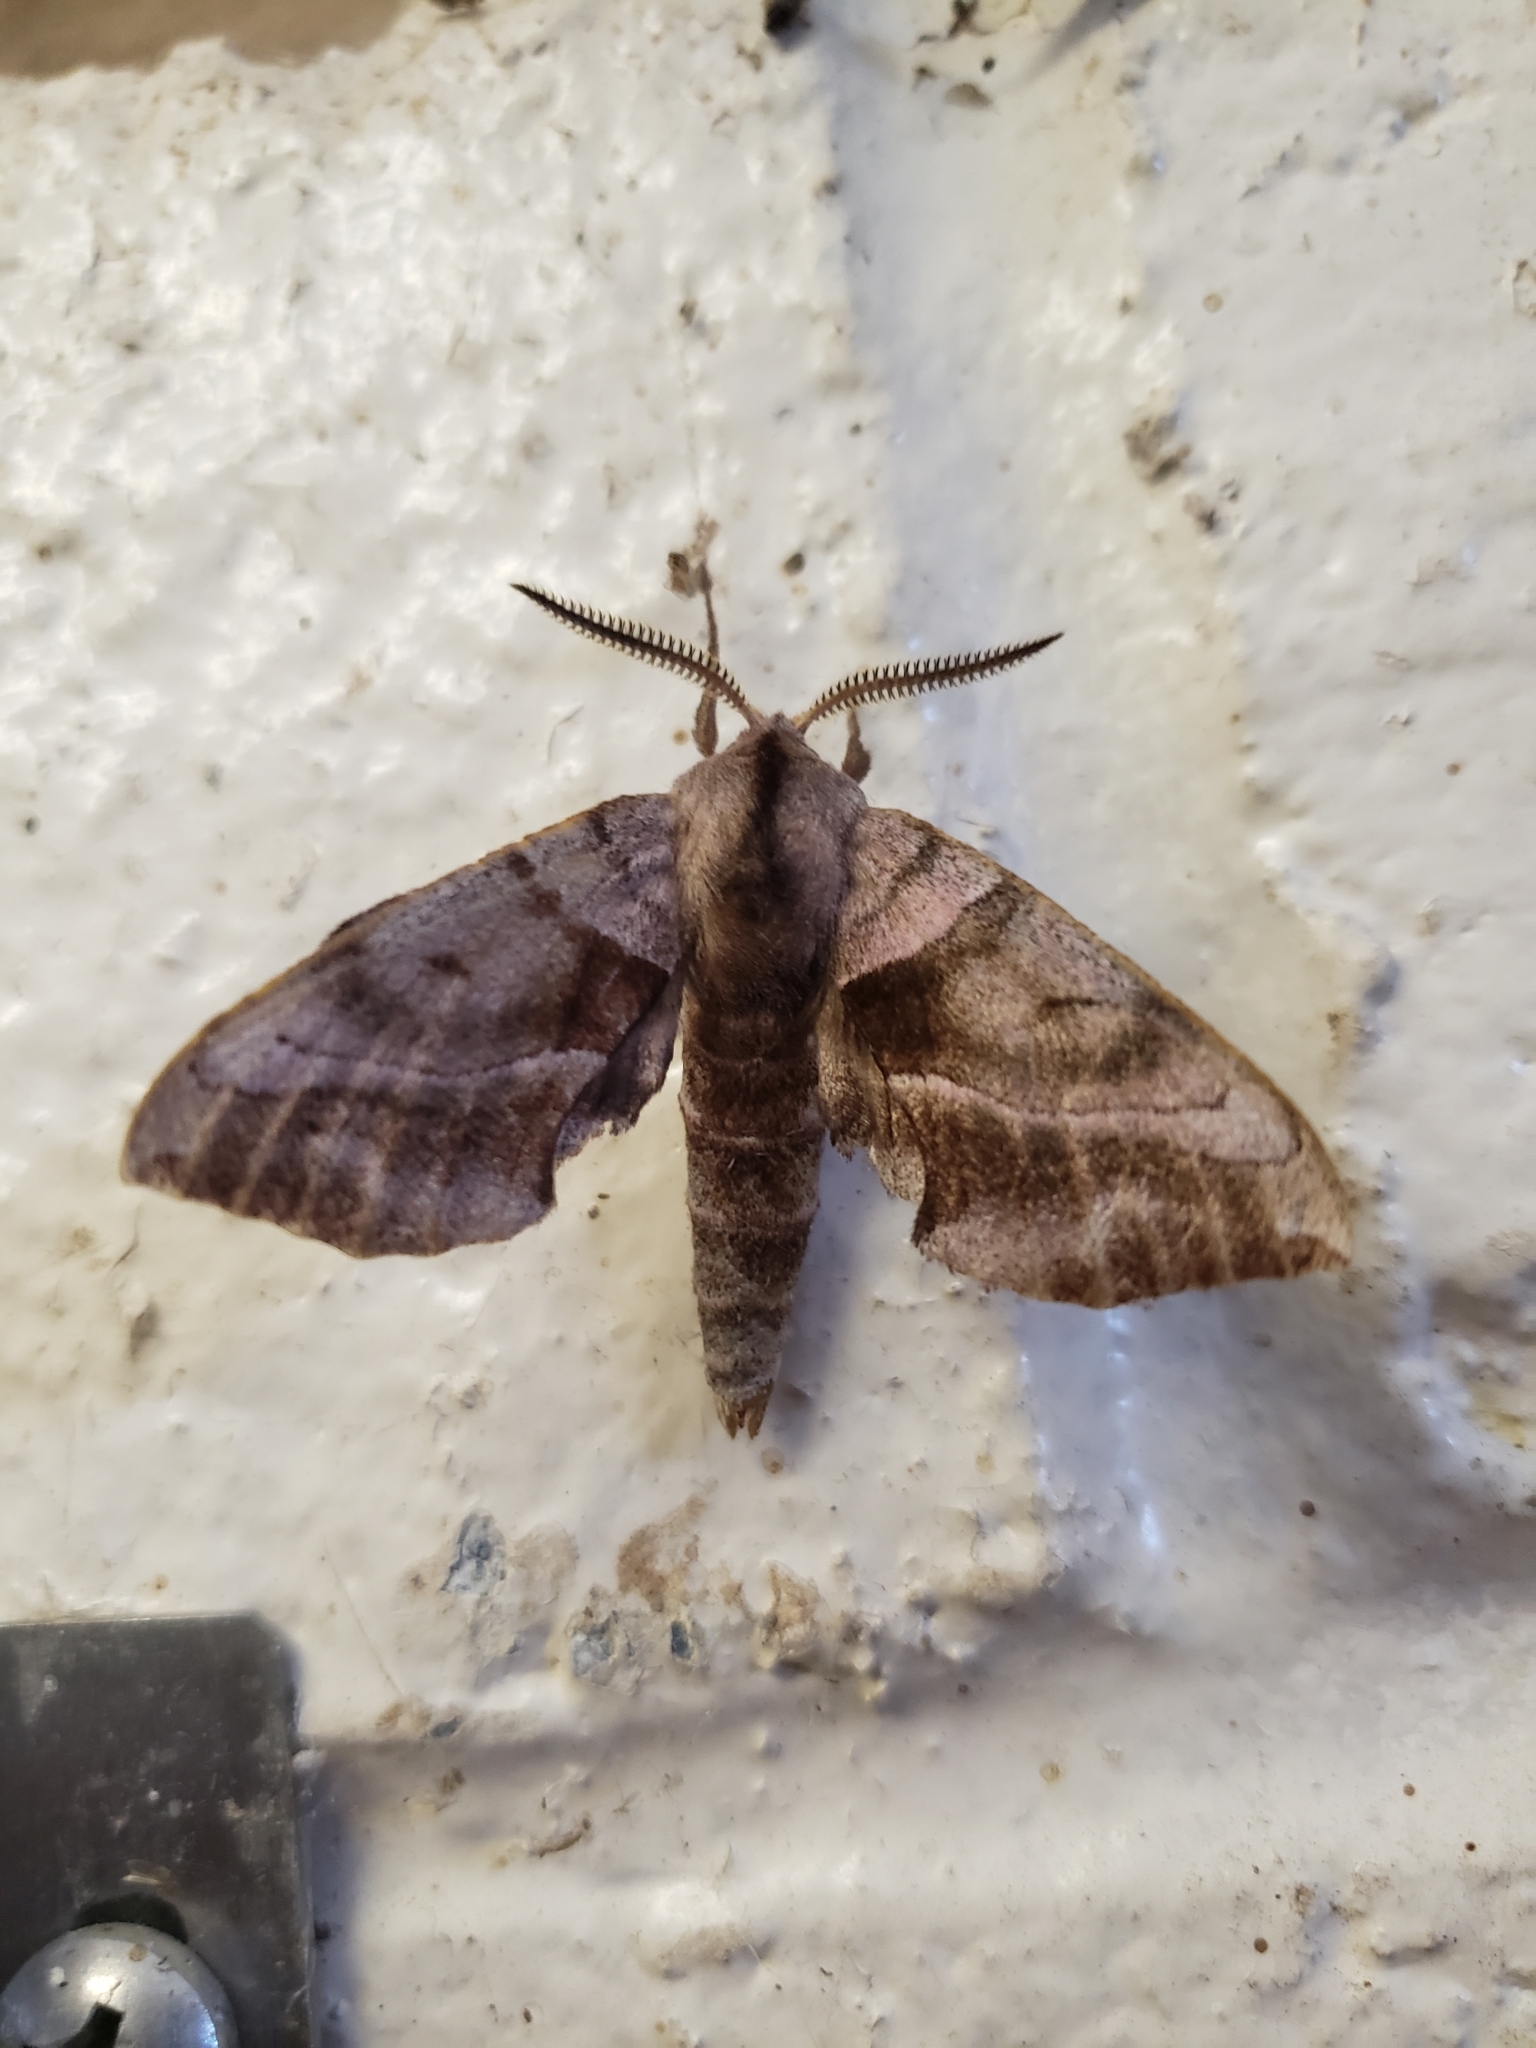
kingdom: Animalia
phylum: Arthropoda
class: Insecta
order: Lepidoptera
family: Sphingidae
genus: Amorpha
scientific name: Amorpha juglandis
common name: Walnut sphinx
